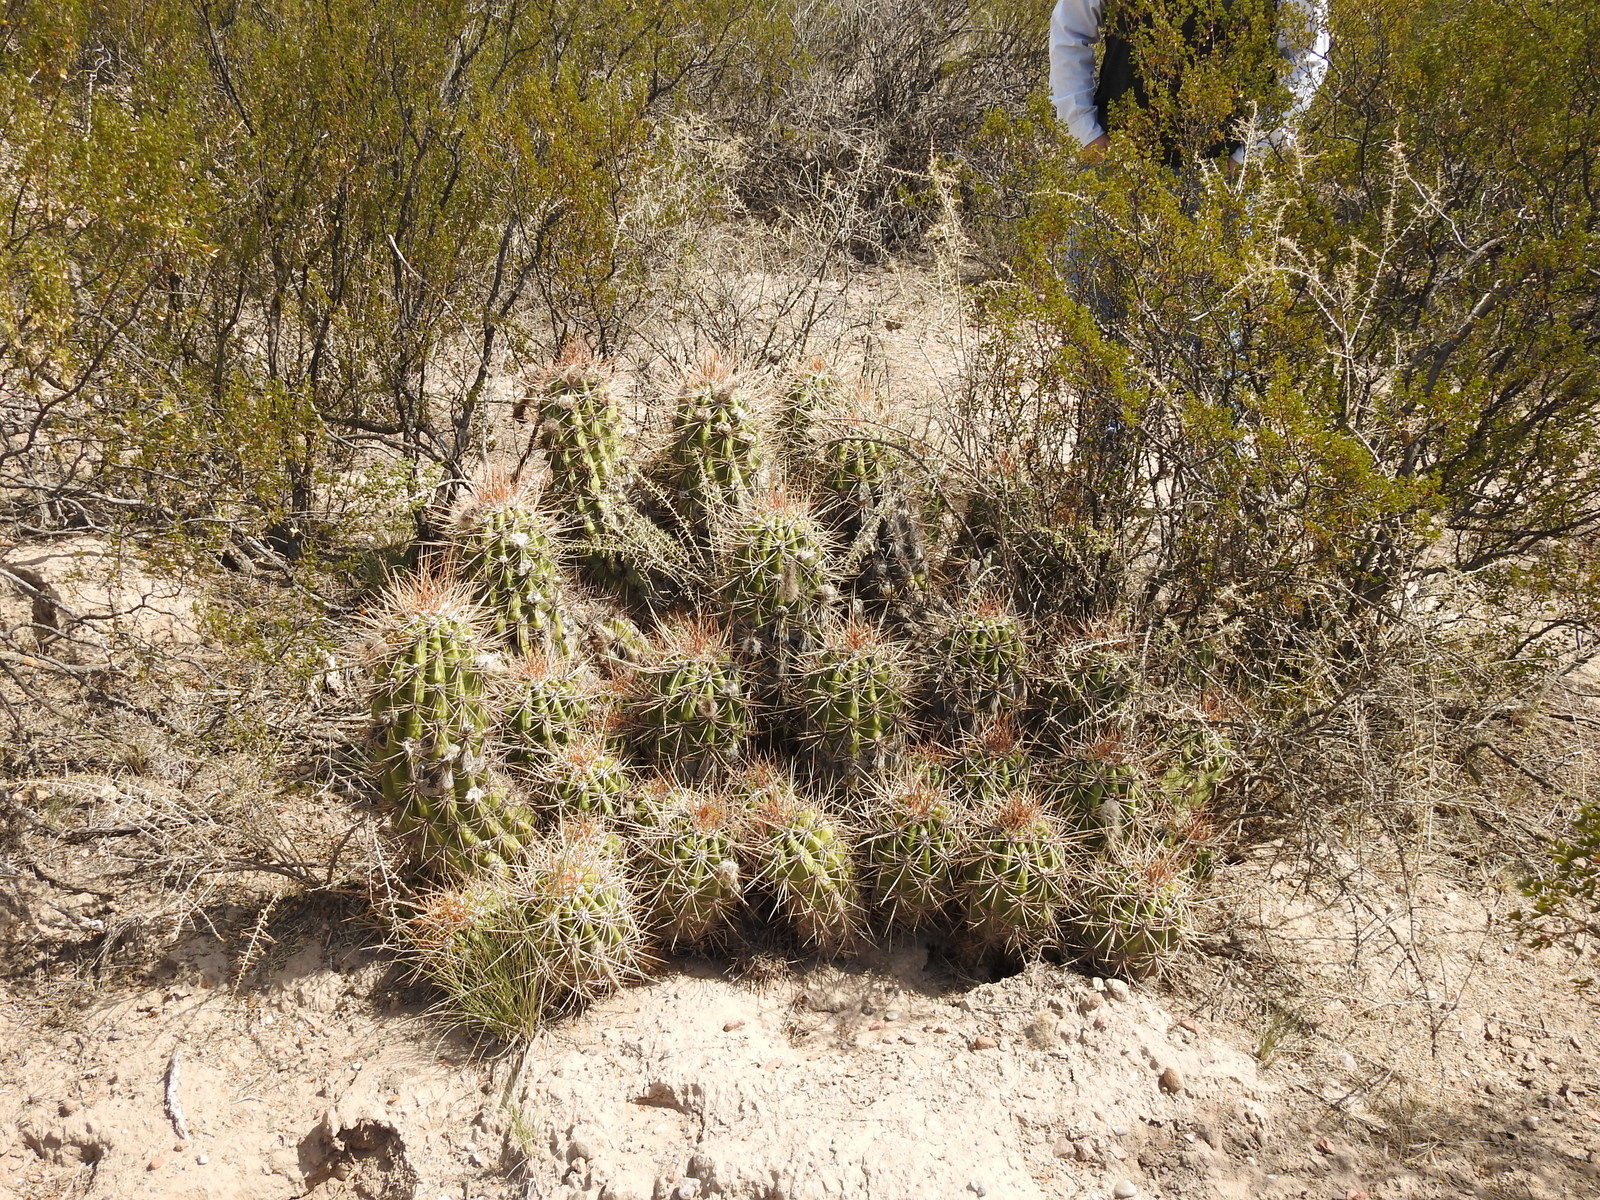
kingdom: Plantae
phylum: Tracheophyta
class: Magnoliopsida
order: Caryophyllales
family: Cactaceae
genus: Soehrensia
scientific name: Soehrensia candicans
